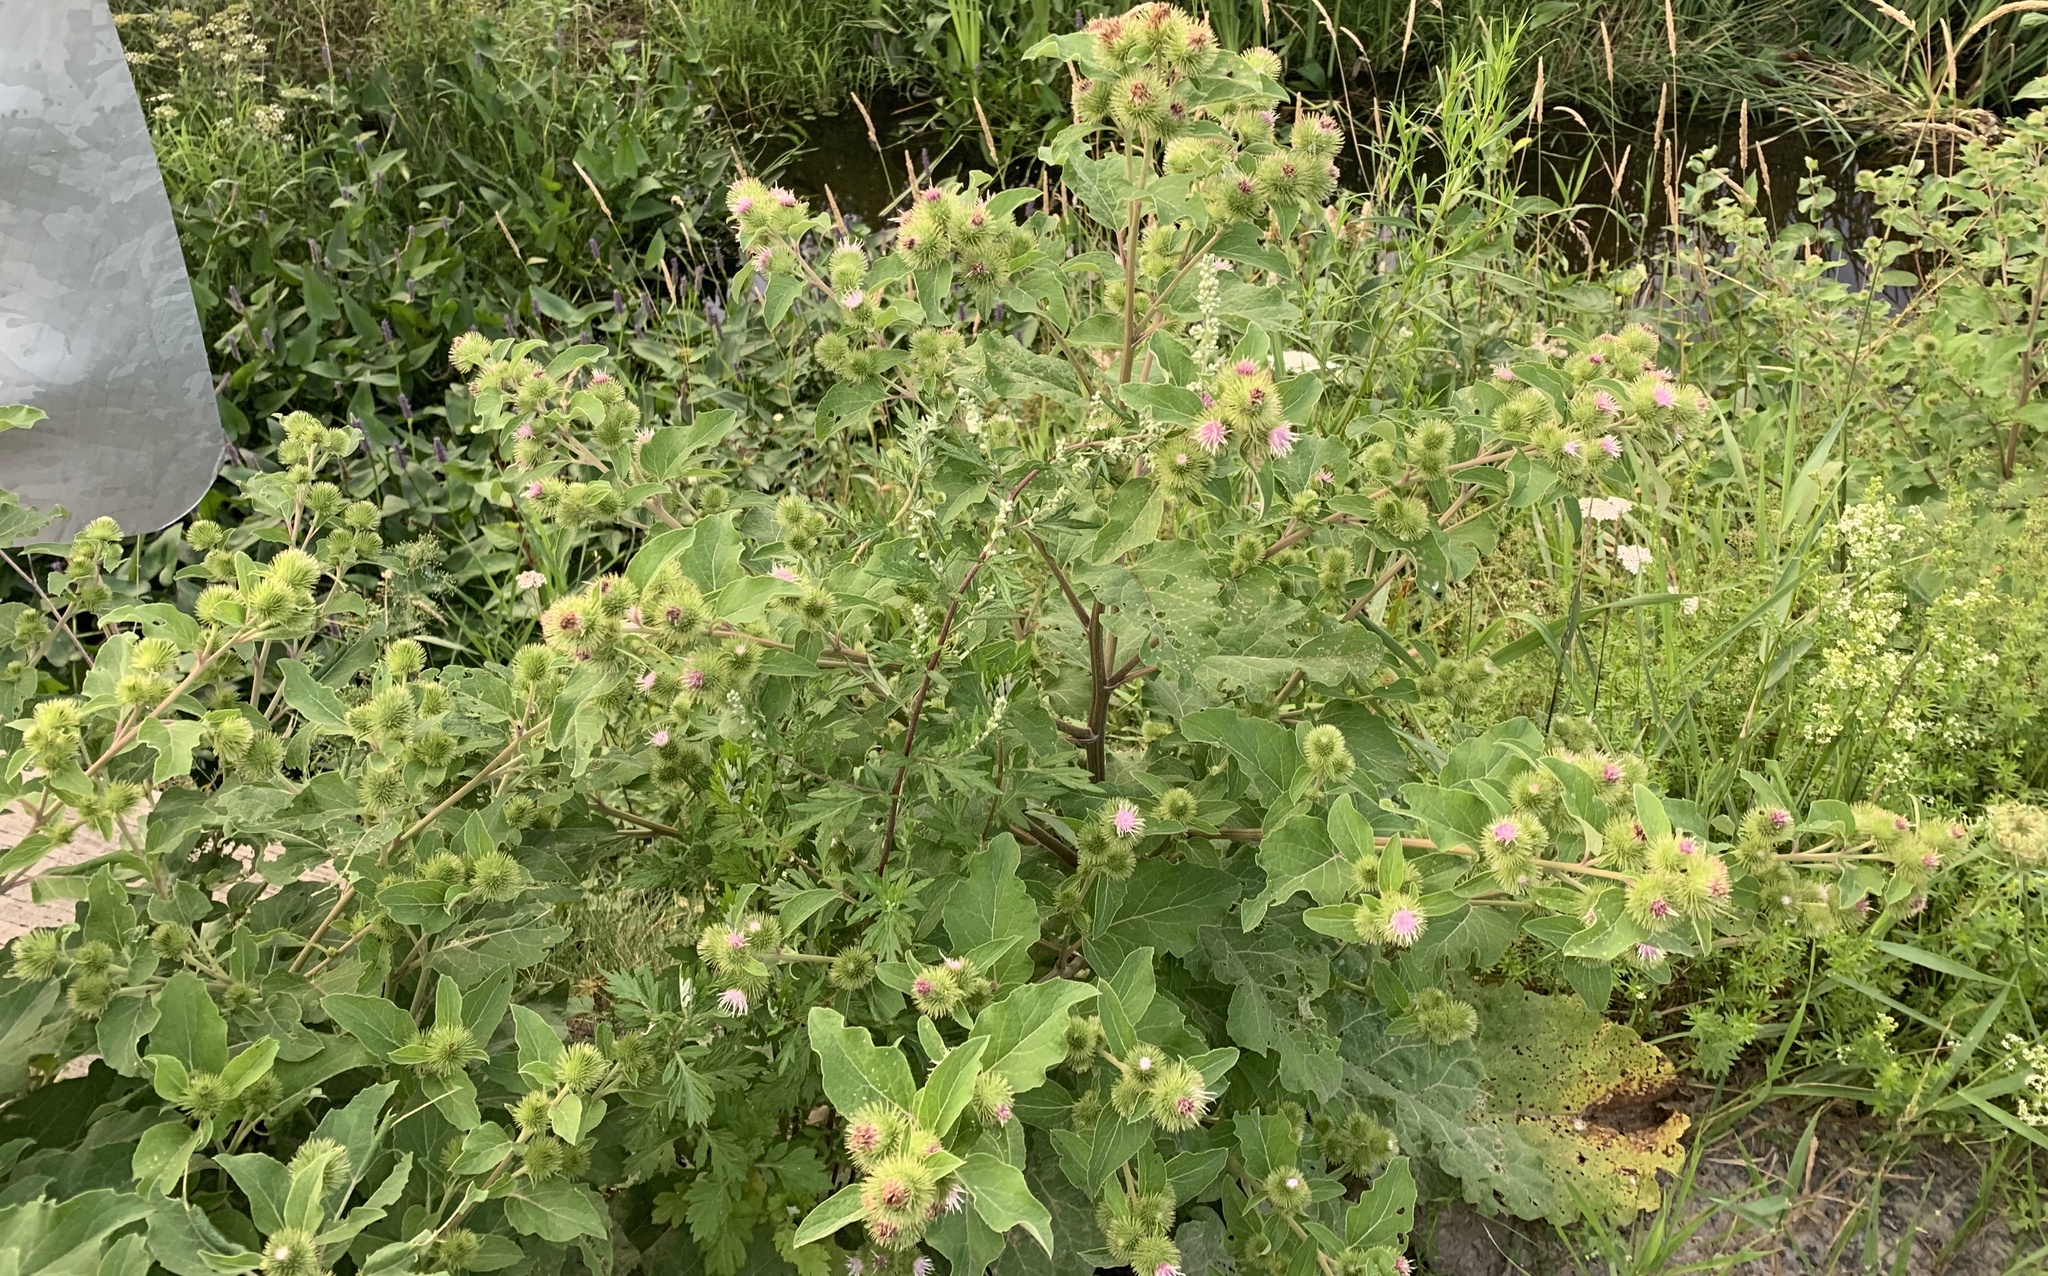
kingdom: Plantae
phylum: Tracheophyta
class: Magnoliopsida
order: Asterales
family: Asteraceae
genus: Arctium
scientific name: Arctium minus
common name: Lesser burdock
